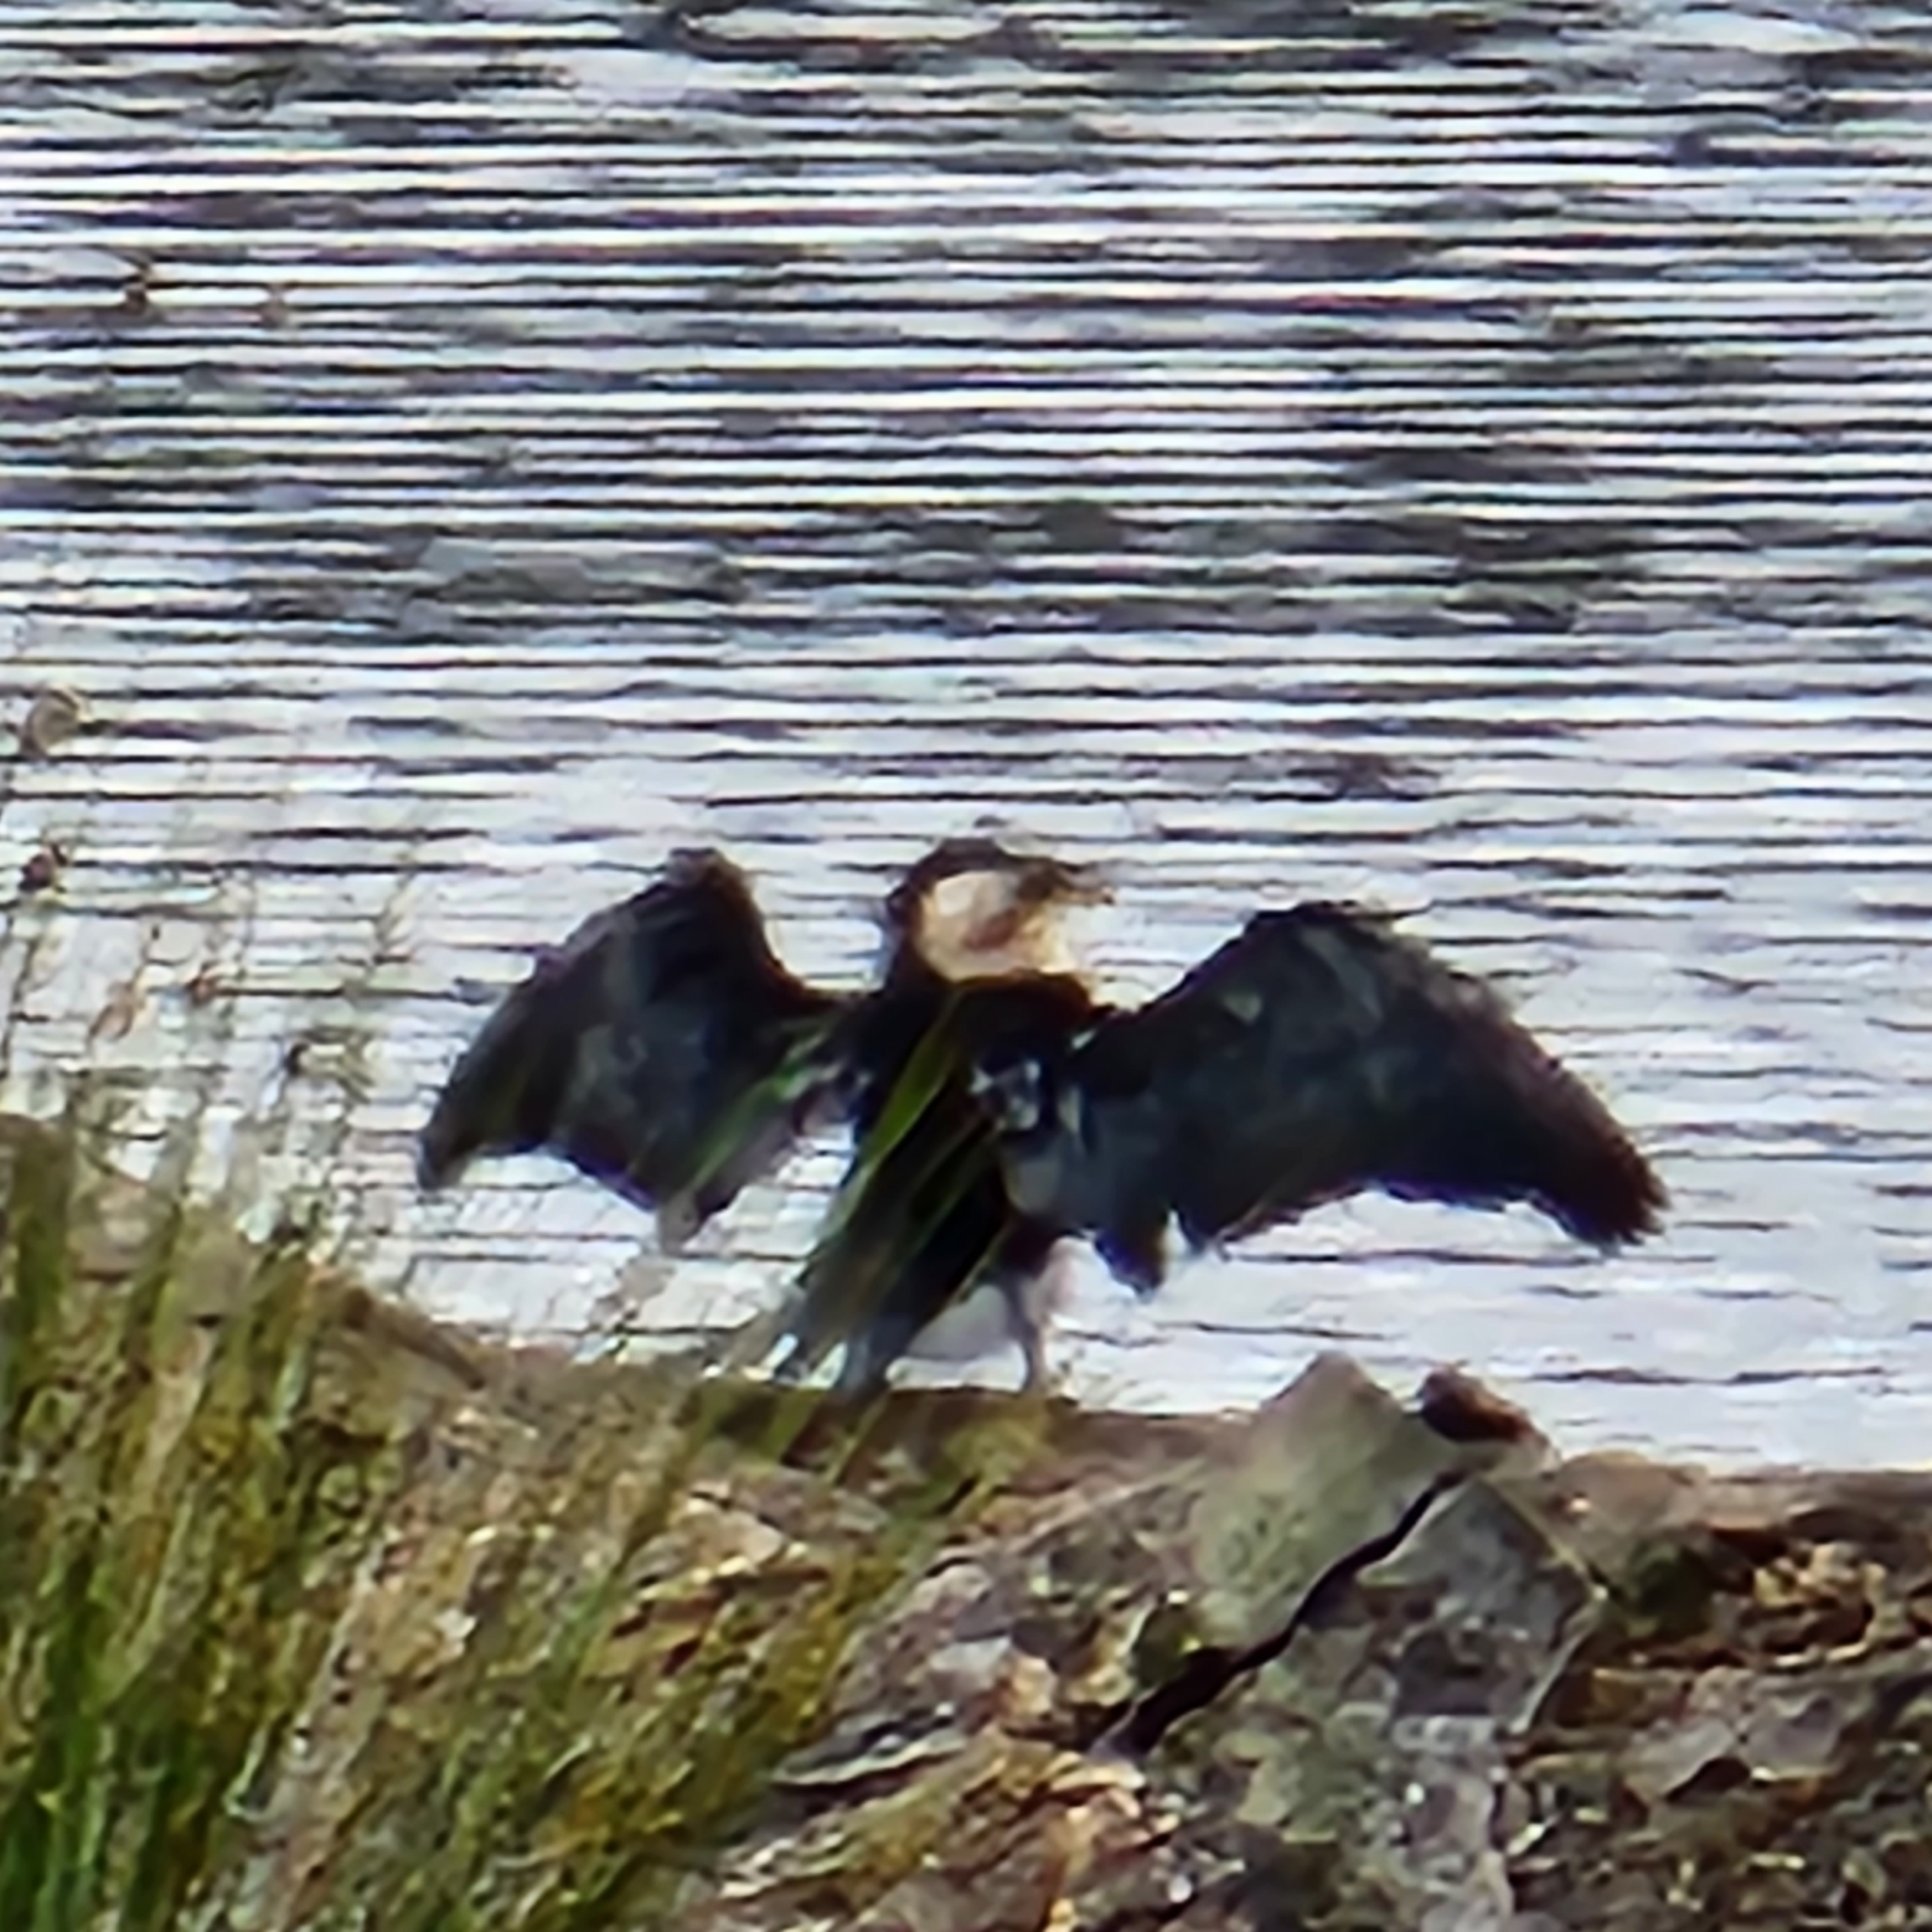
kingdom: Animalia
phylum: Chordata
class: Aves
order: Suliformes
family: Phalacrocoracidae
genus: Microcarbo
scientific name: Microcarbo melanoleucos
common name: Little pied cormorant
